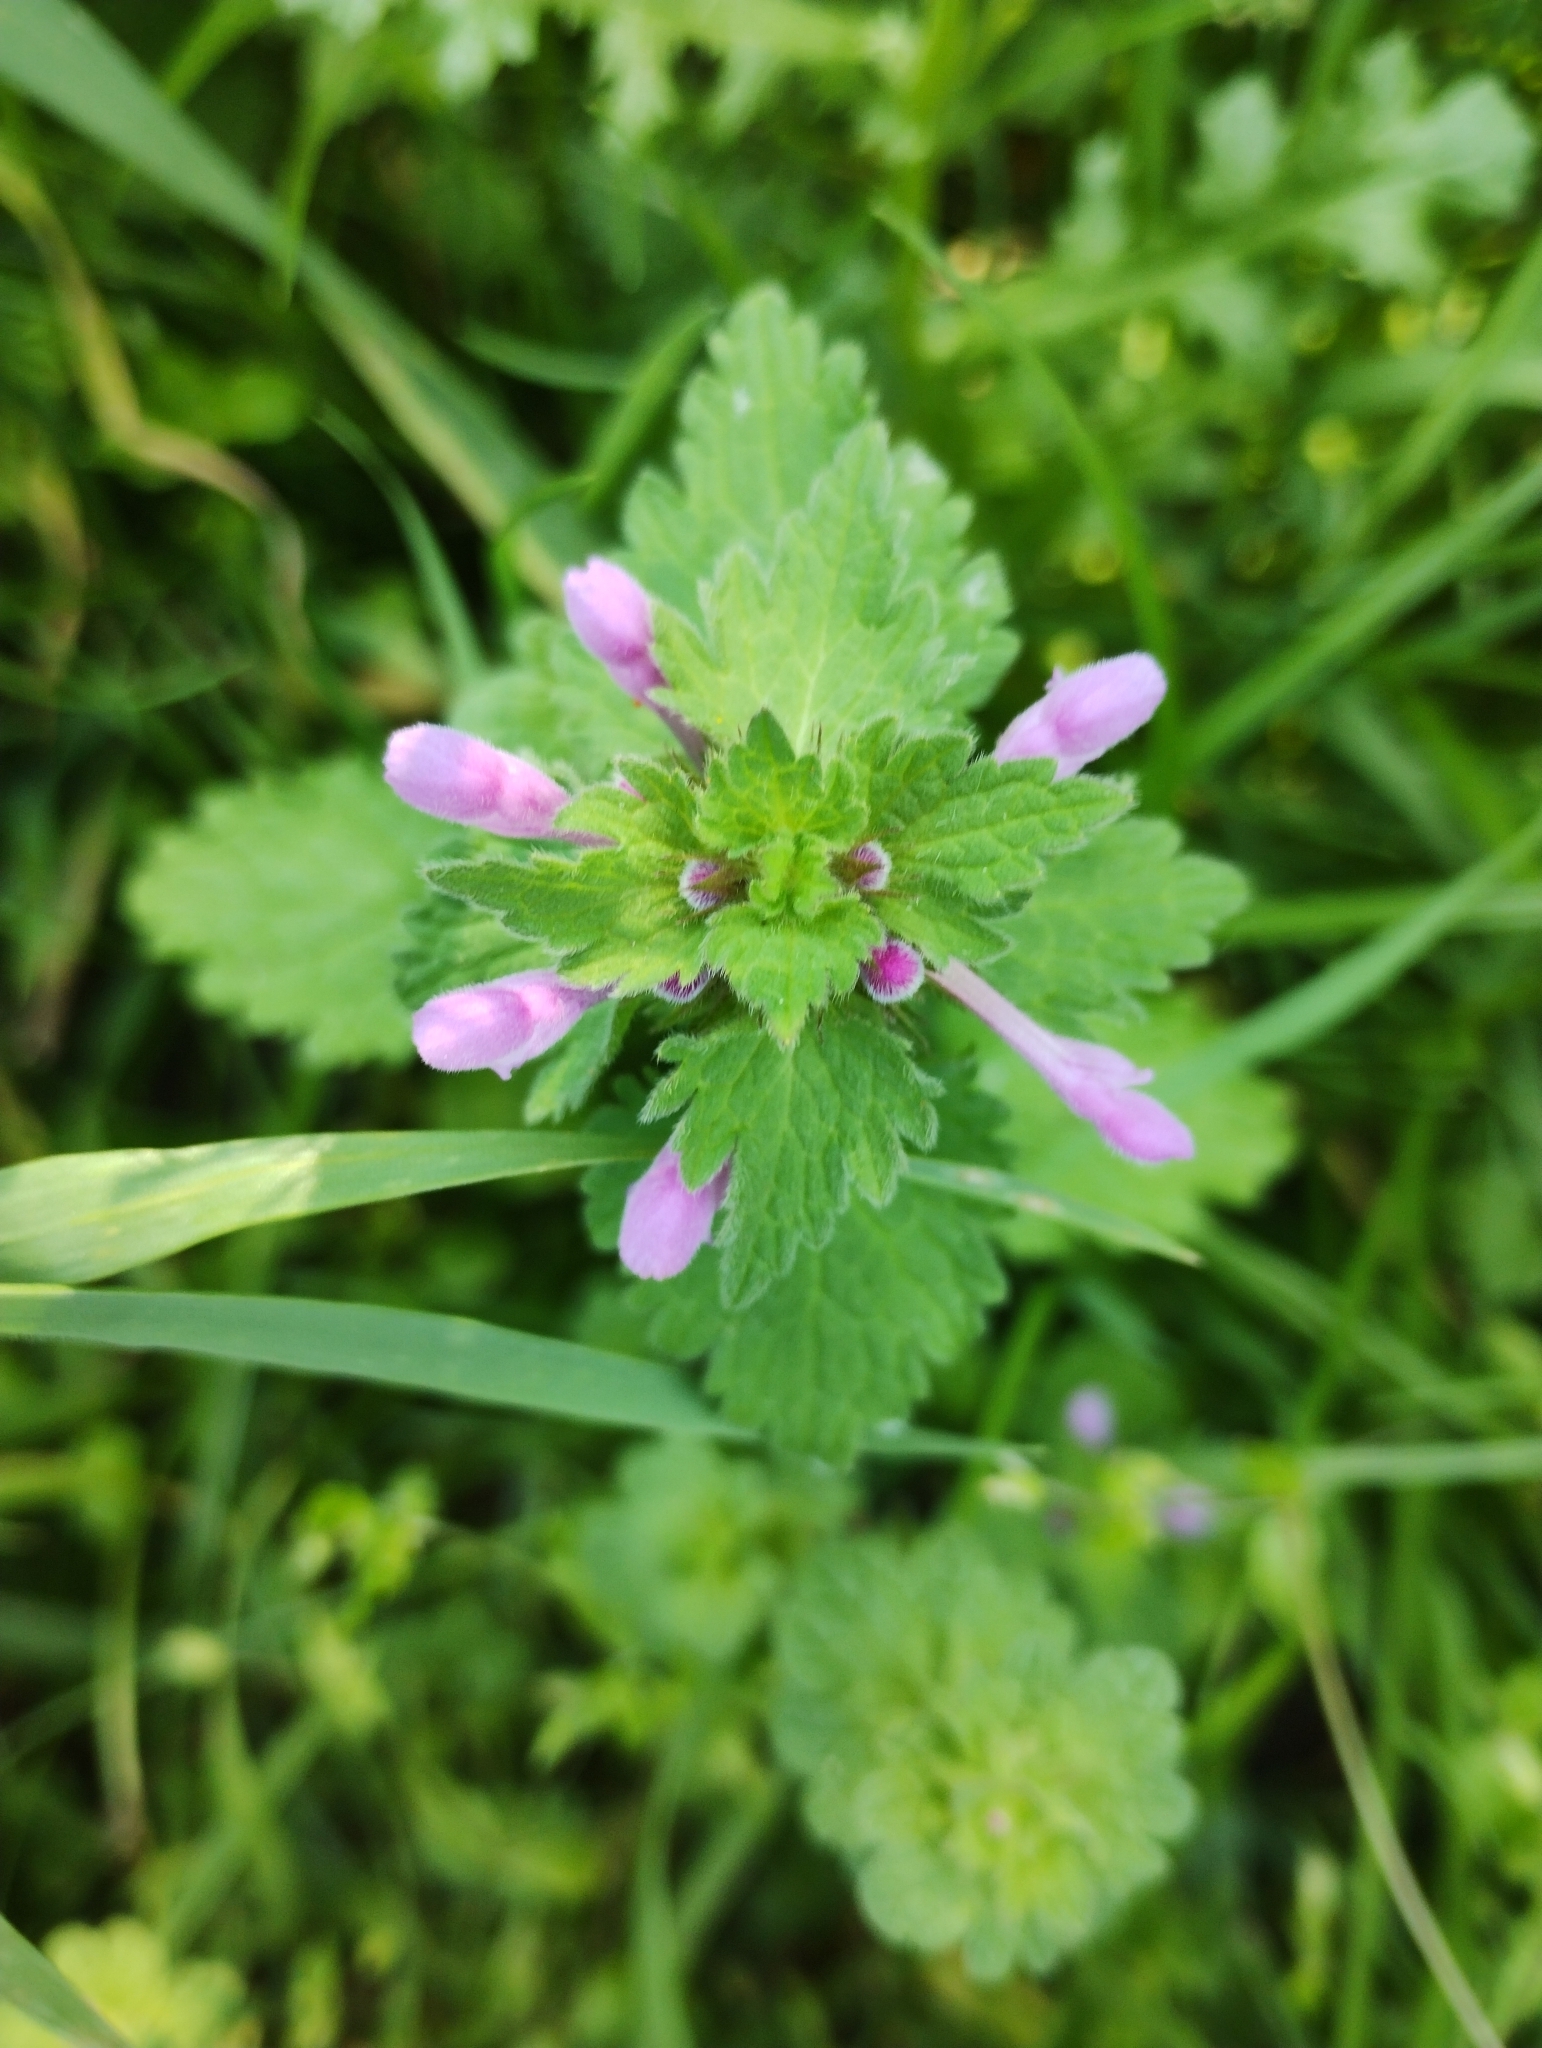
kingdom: Plantae
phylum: Tracheophyta
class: Magnoliopsida
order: Lamiales
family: Lamiaceae
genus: Lamium
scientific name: Lamium hybridum
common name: Cut-leaved dead-nettle
